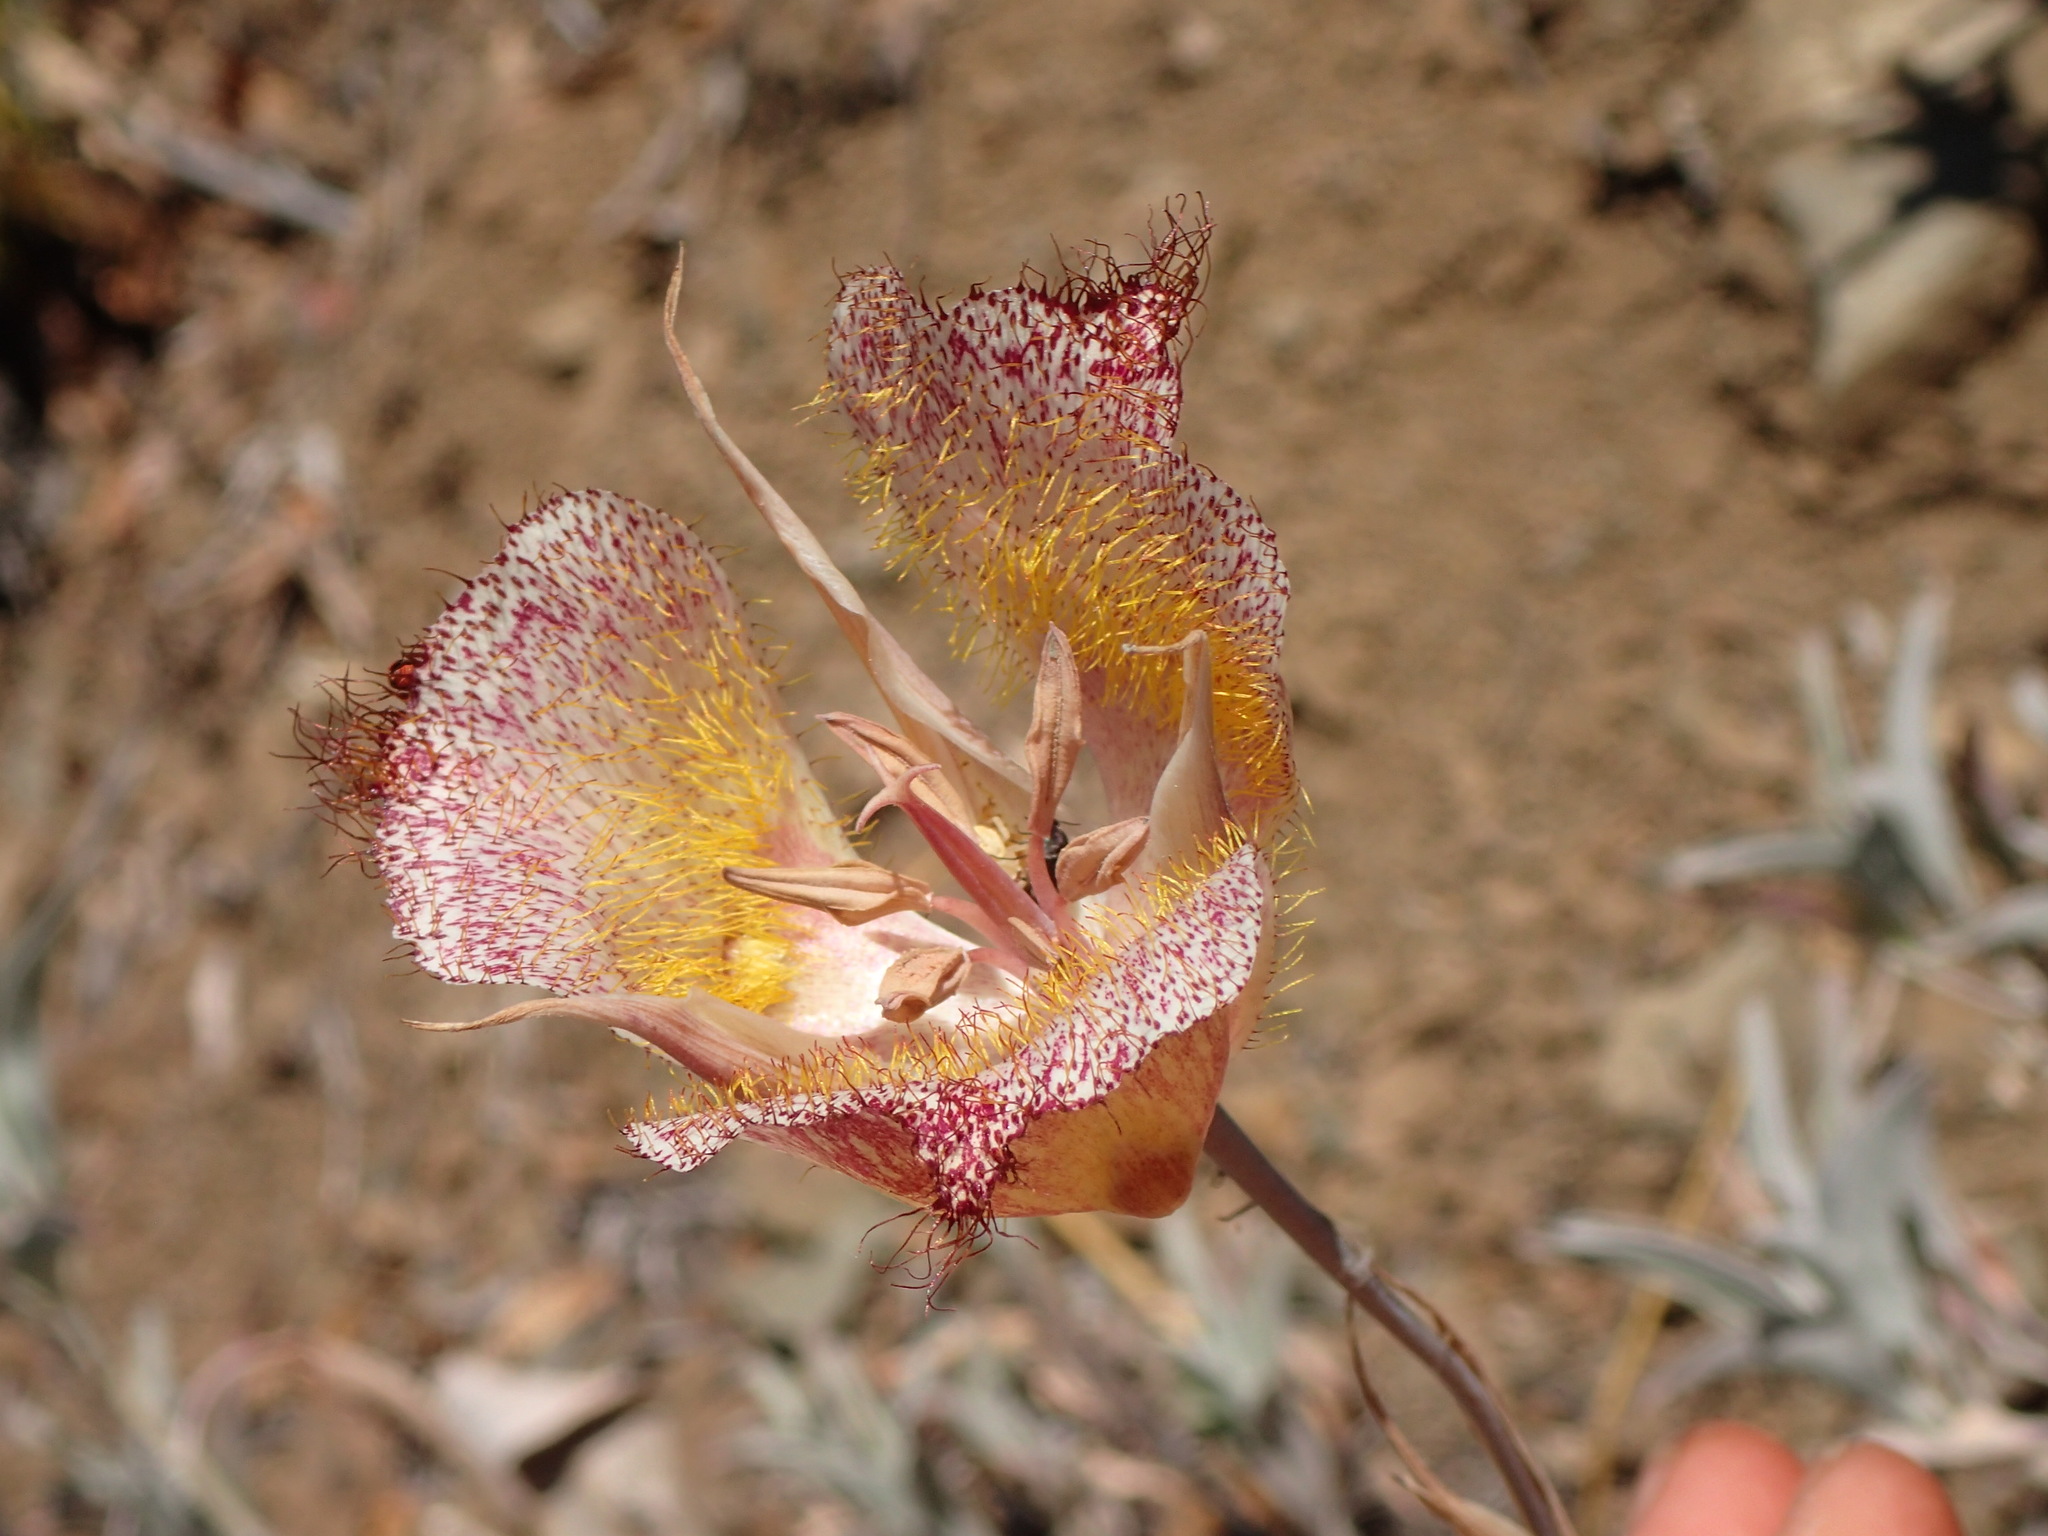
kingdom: Plantae
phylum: Tracheophyta
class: Liliopsida
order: Liliales
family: Liliaceae
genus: Calochortus
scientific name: Calochortus fimbriatus
